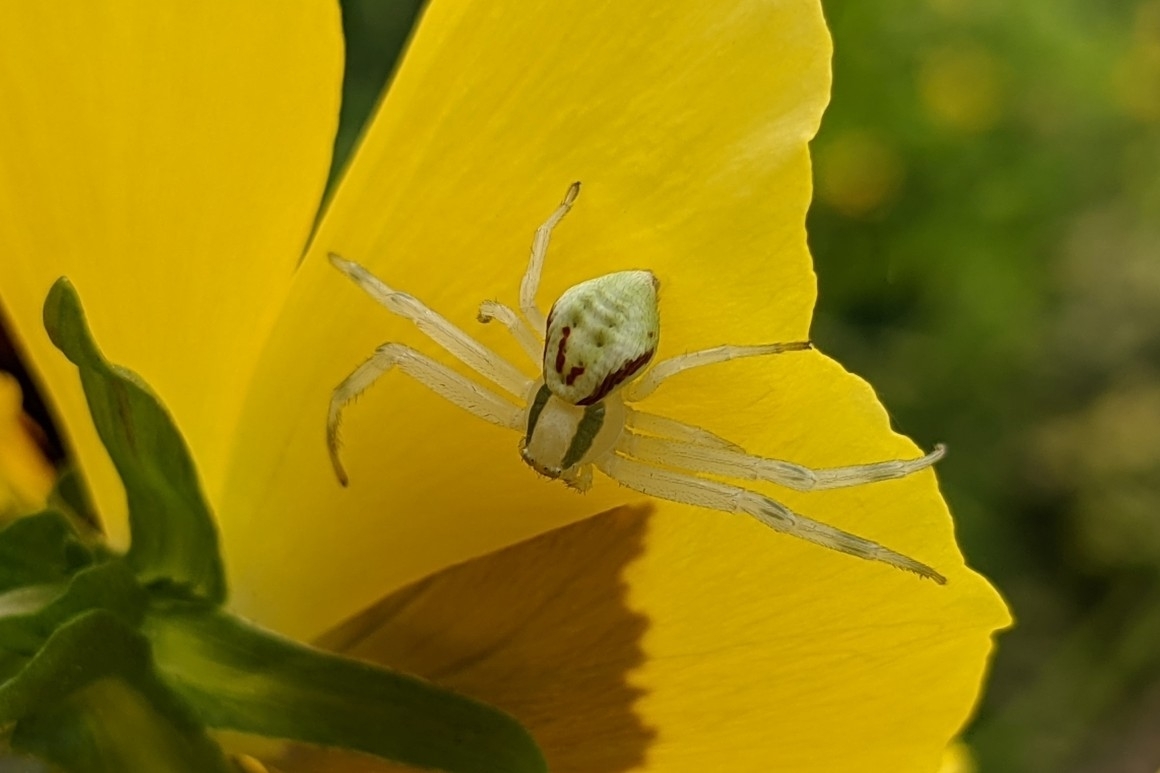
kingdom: Animalia
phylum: Arthropoda
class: Arachnida
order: Araneae
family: Thomisidae
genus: Misumena
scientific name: Misumena vatia
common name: Goldenrod crab spider
